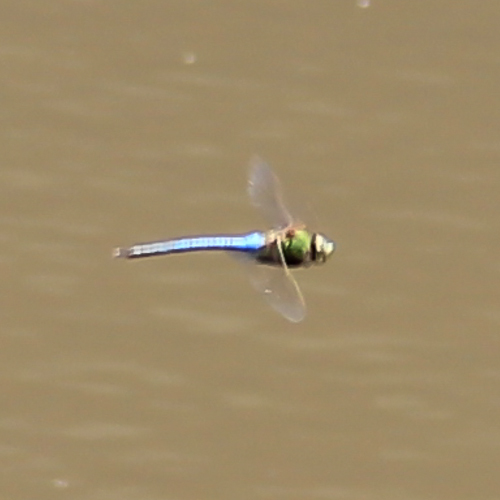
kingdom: Animalia
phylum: Arthropoda
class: Insecta
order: Odonata
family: Aeshnidae
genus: Anax
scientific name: Anax junius
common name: Common green darner
